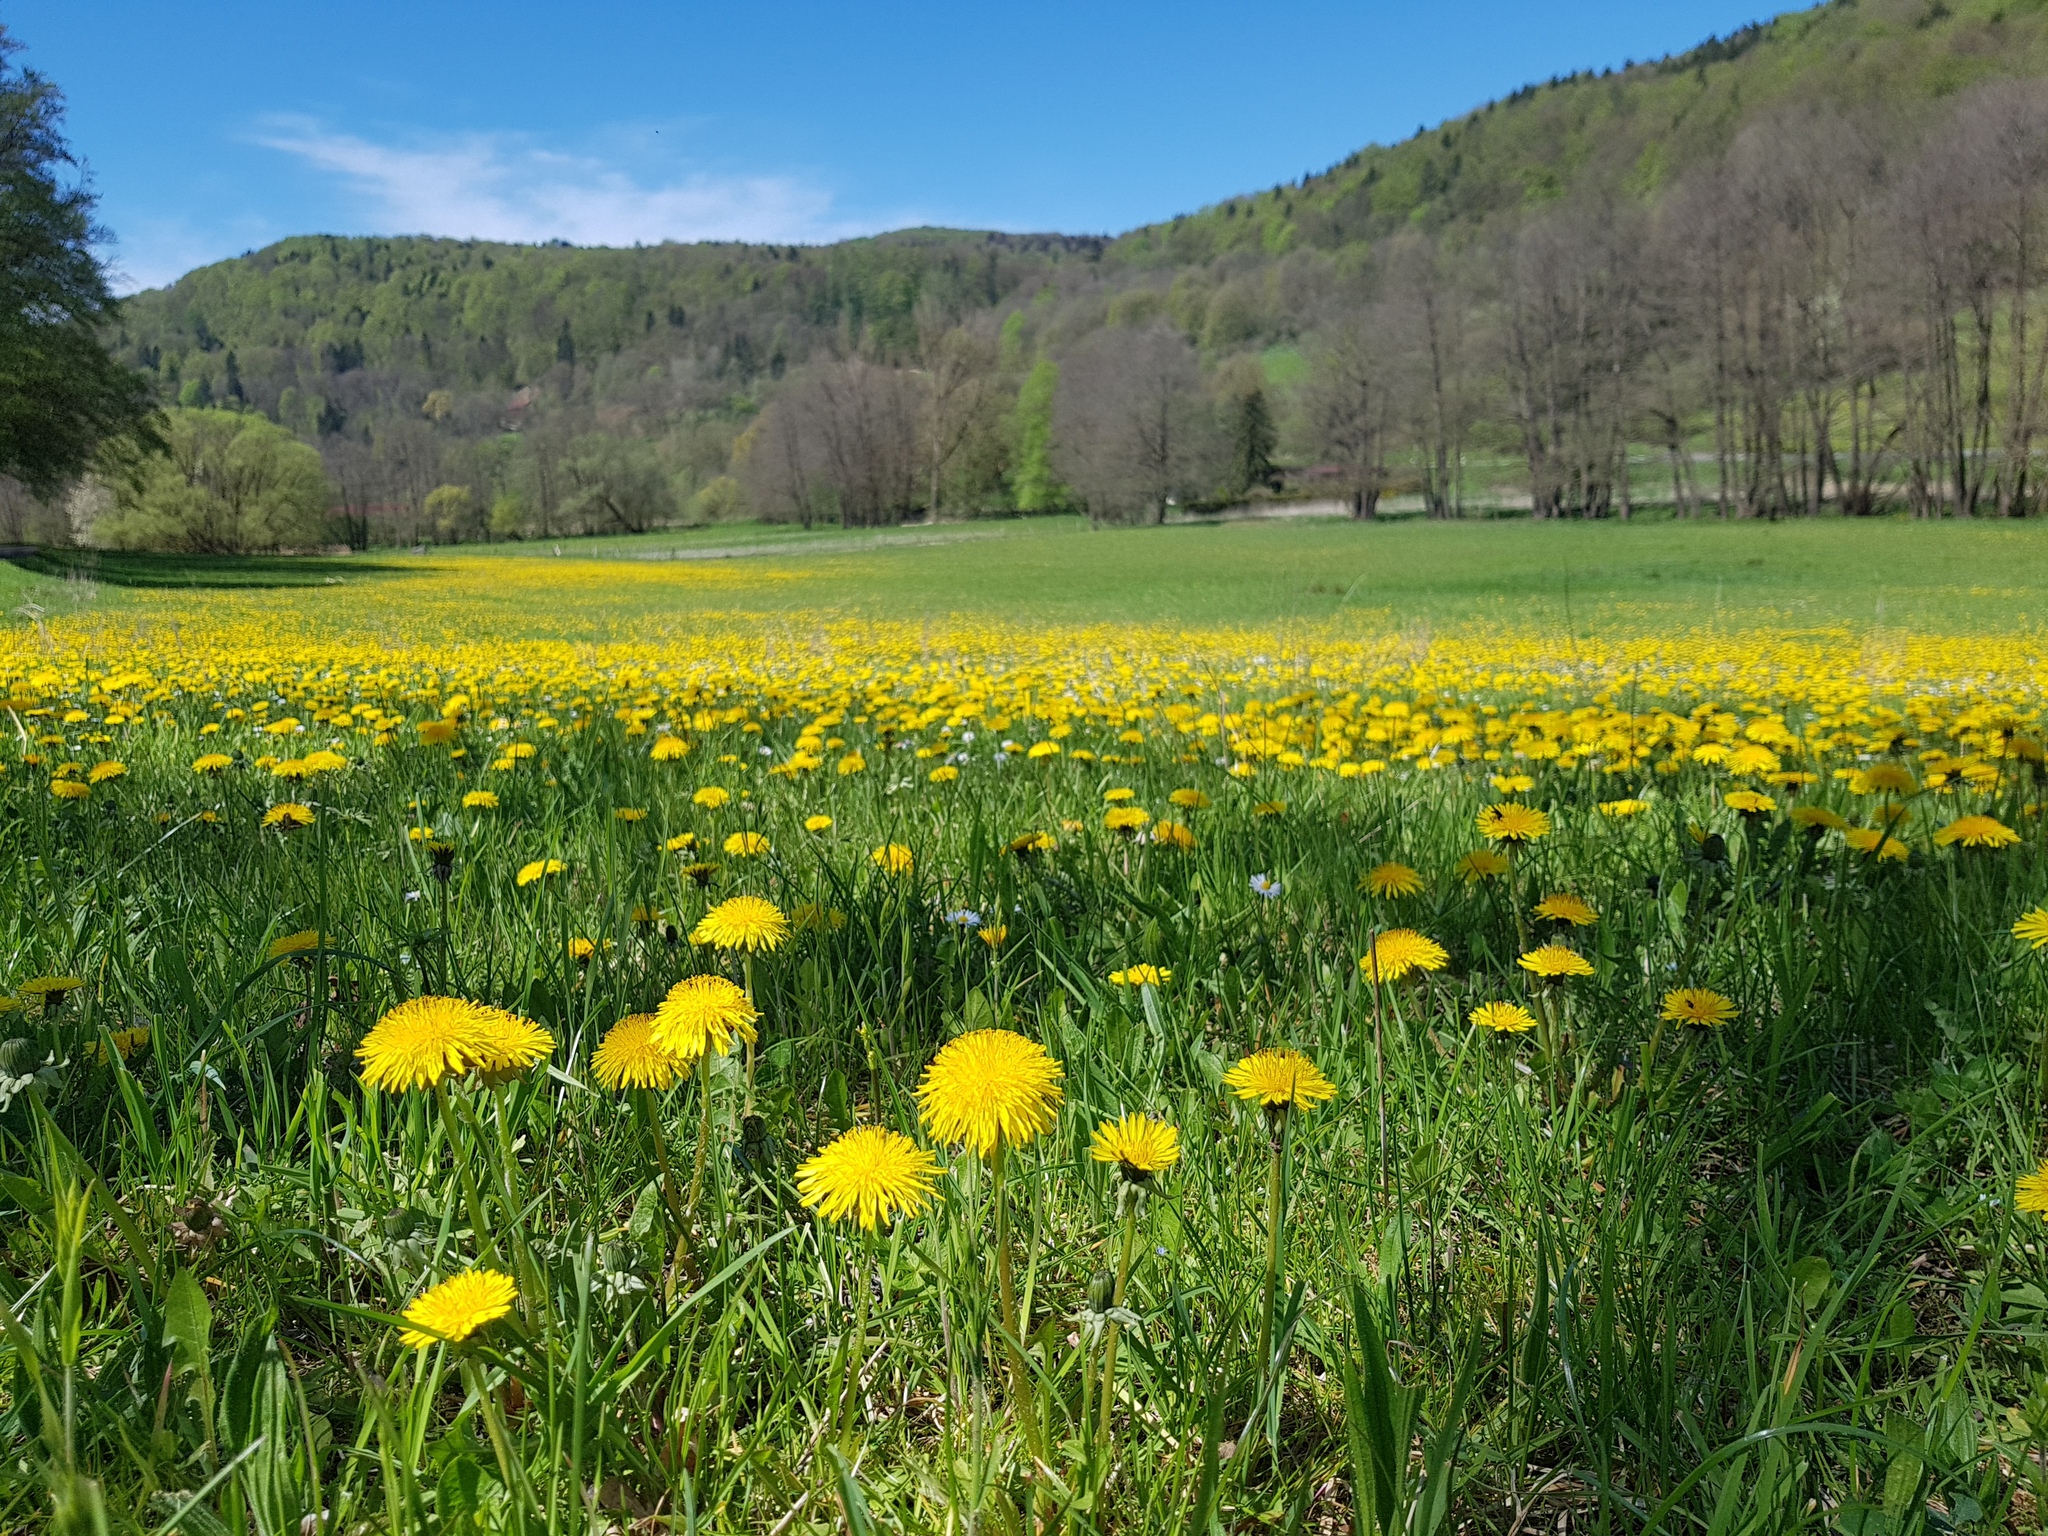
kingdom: Plantae
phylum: Tracheophyta
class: Magnoliopsida
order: Asterales
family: Asteraceae
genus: Taraxacum
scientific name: Taraxacum officinale
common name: Common dandelion
